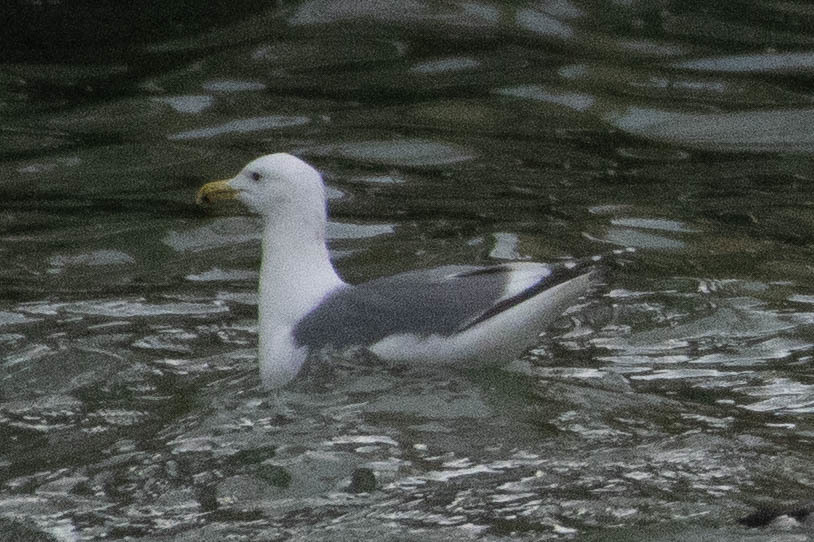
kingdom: Animalia
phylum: Chordata
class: Aves
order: Charadriiformes
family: Laridae
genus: Larus
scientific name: Larus
